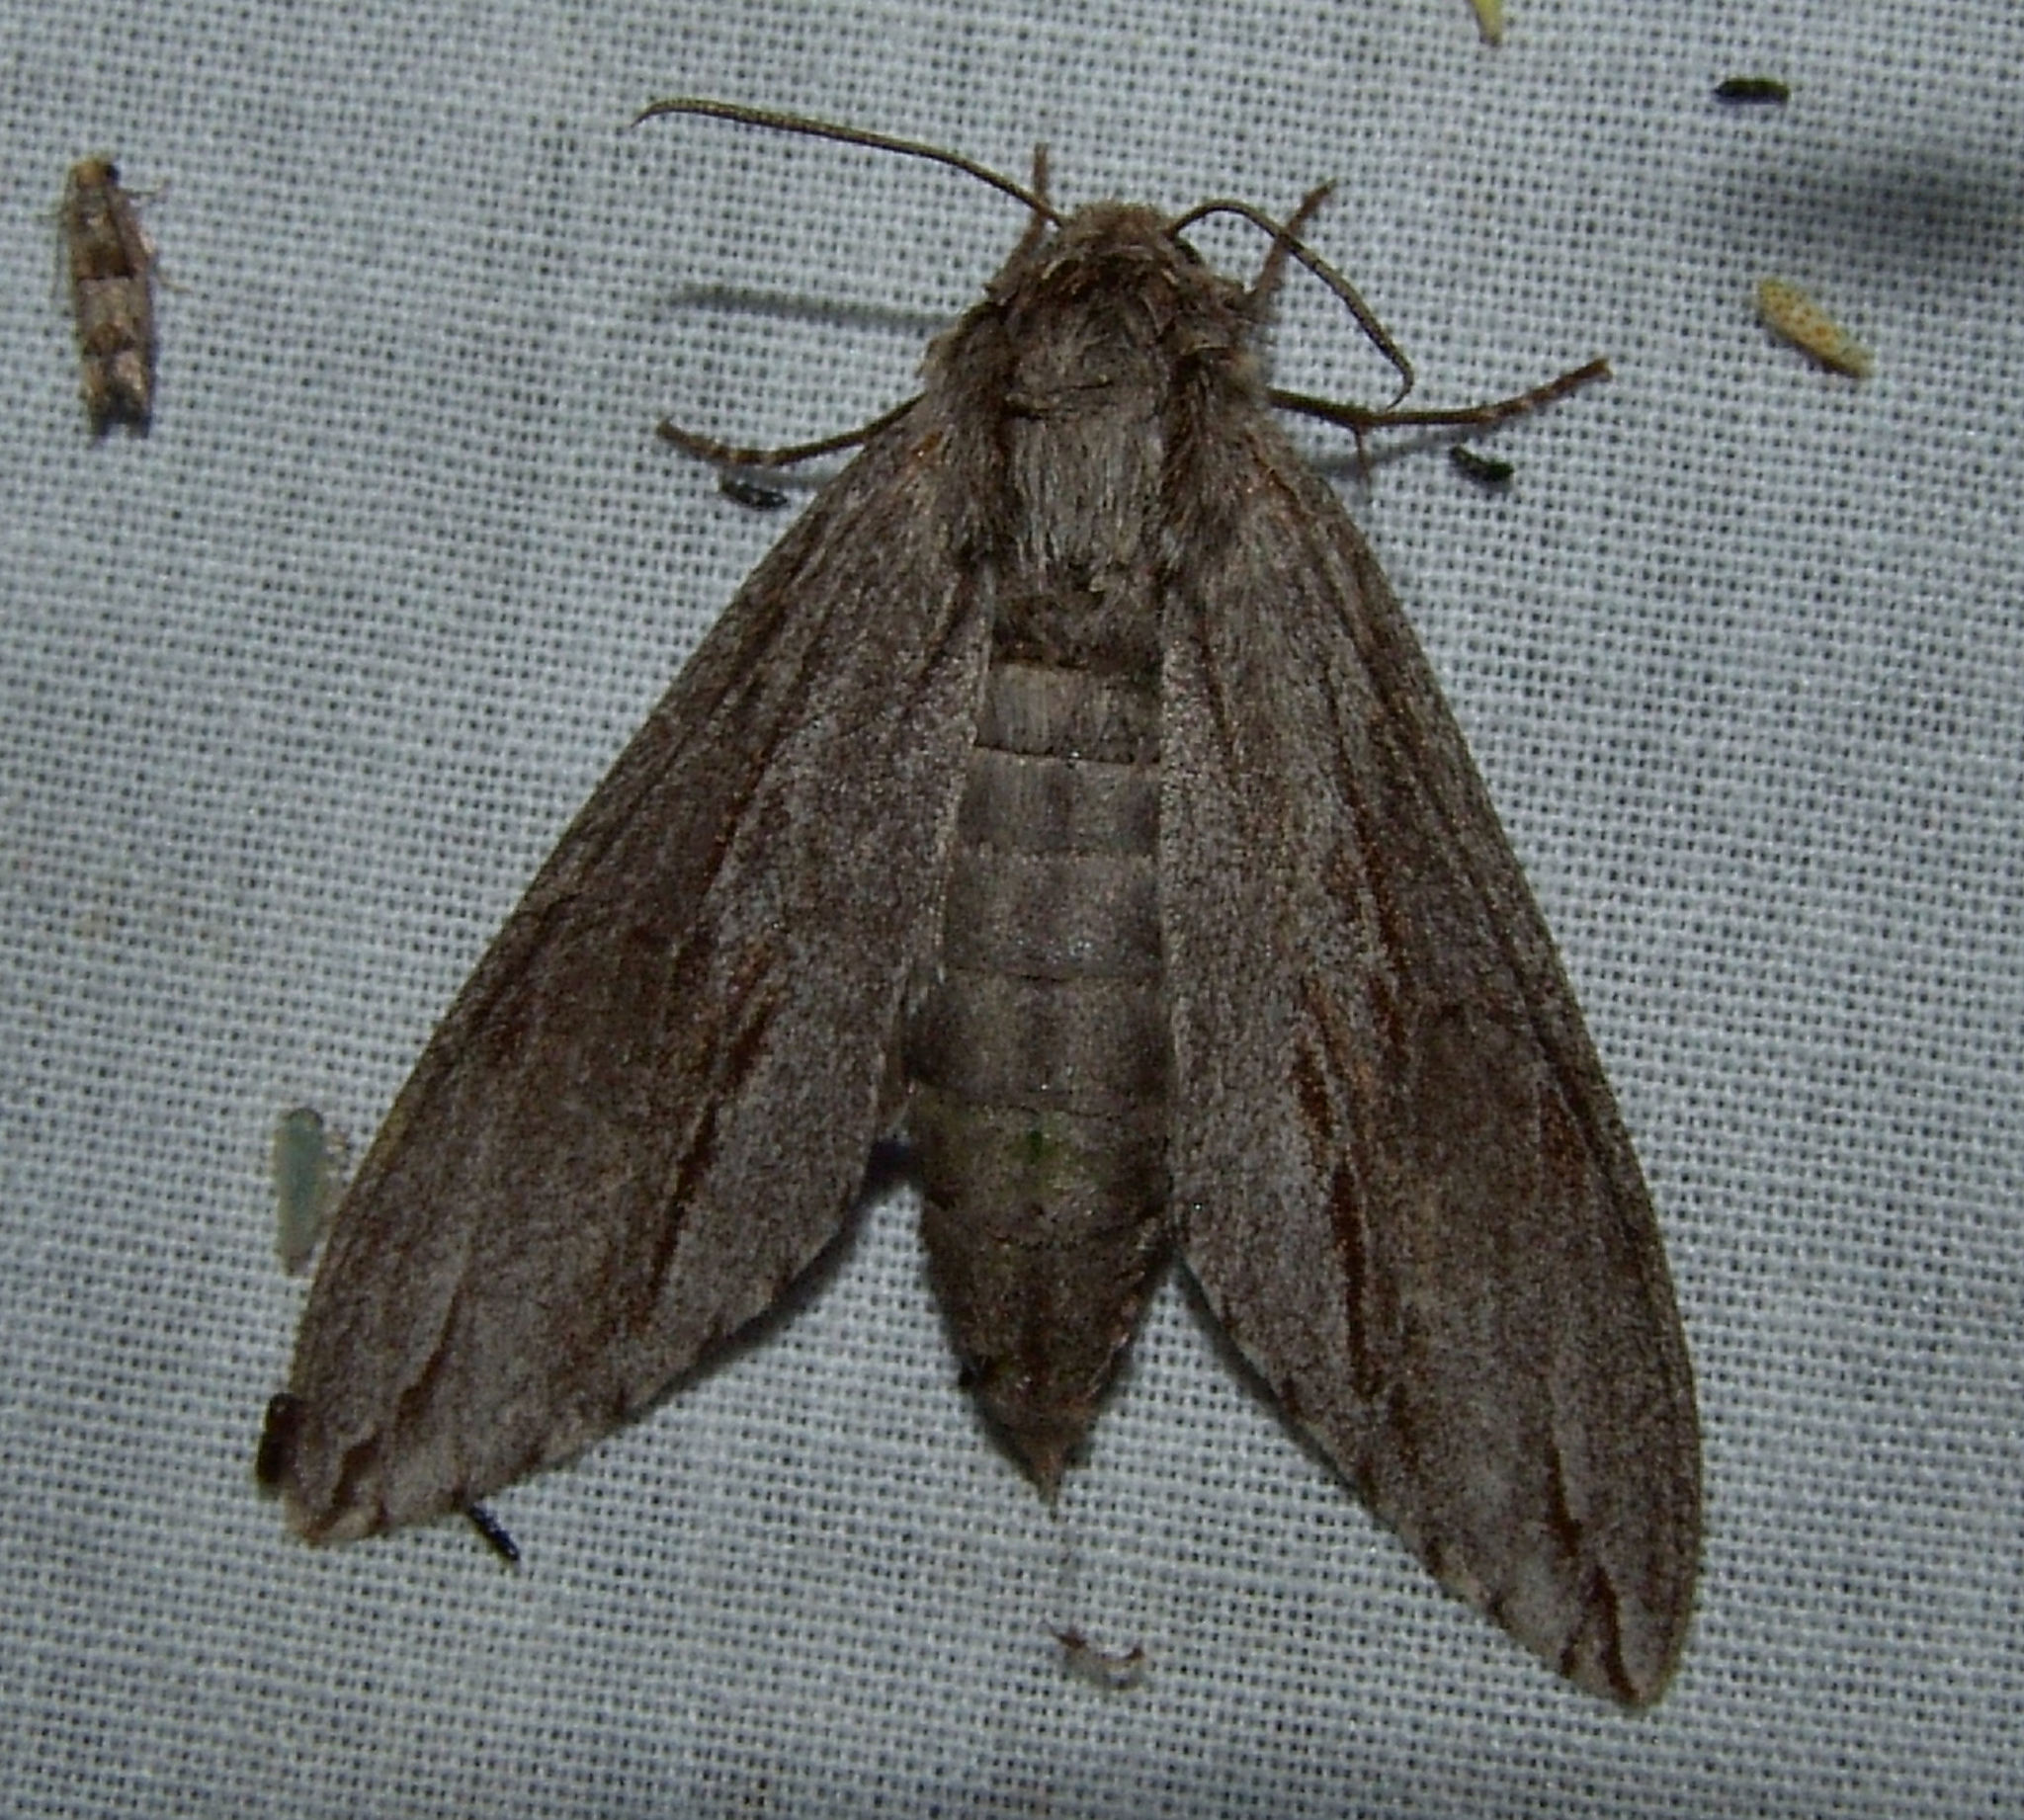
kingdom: Animalia
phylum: Arthropoda
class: Insecta
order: Lepidoptera
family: Sphingidae
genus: Isoparce
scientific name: Isoparce cupressi
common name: Cypress sphinx
